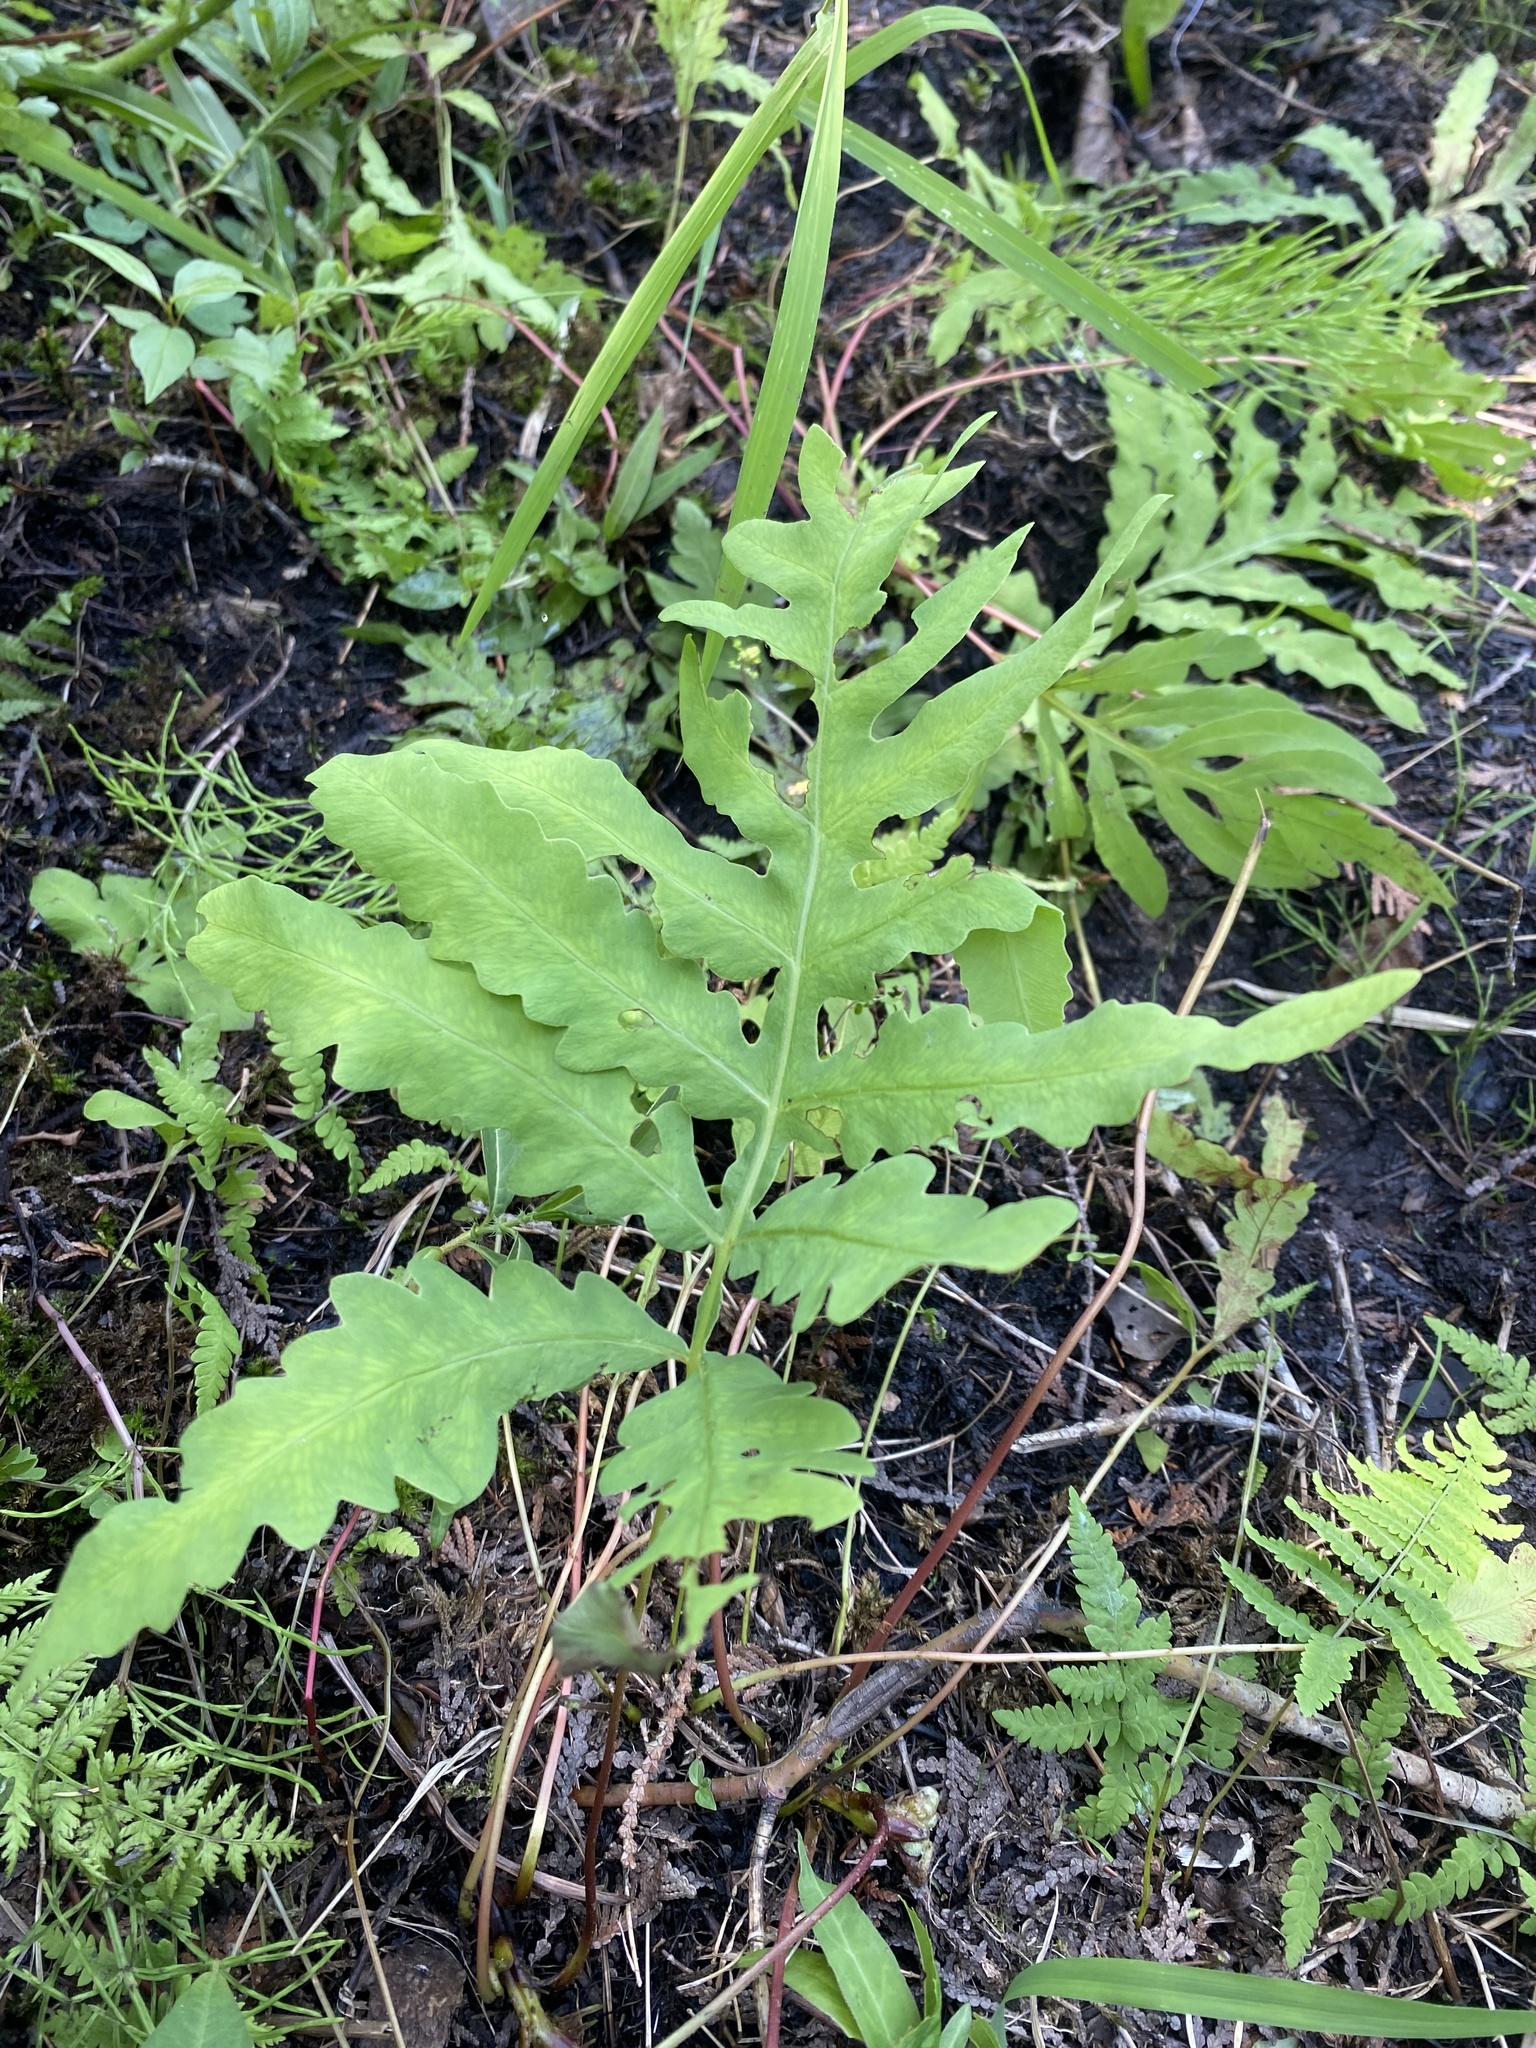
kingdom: Plantae
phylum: Tracheophyta
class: Polypodiopsida
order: Polypodiales
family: Onocleaceae
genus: Onoclea
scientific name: Onoclea sensibilis
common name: Sensitive fern
